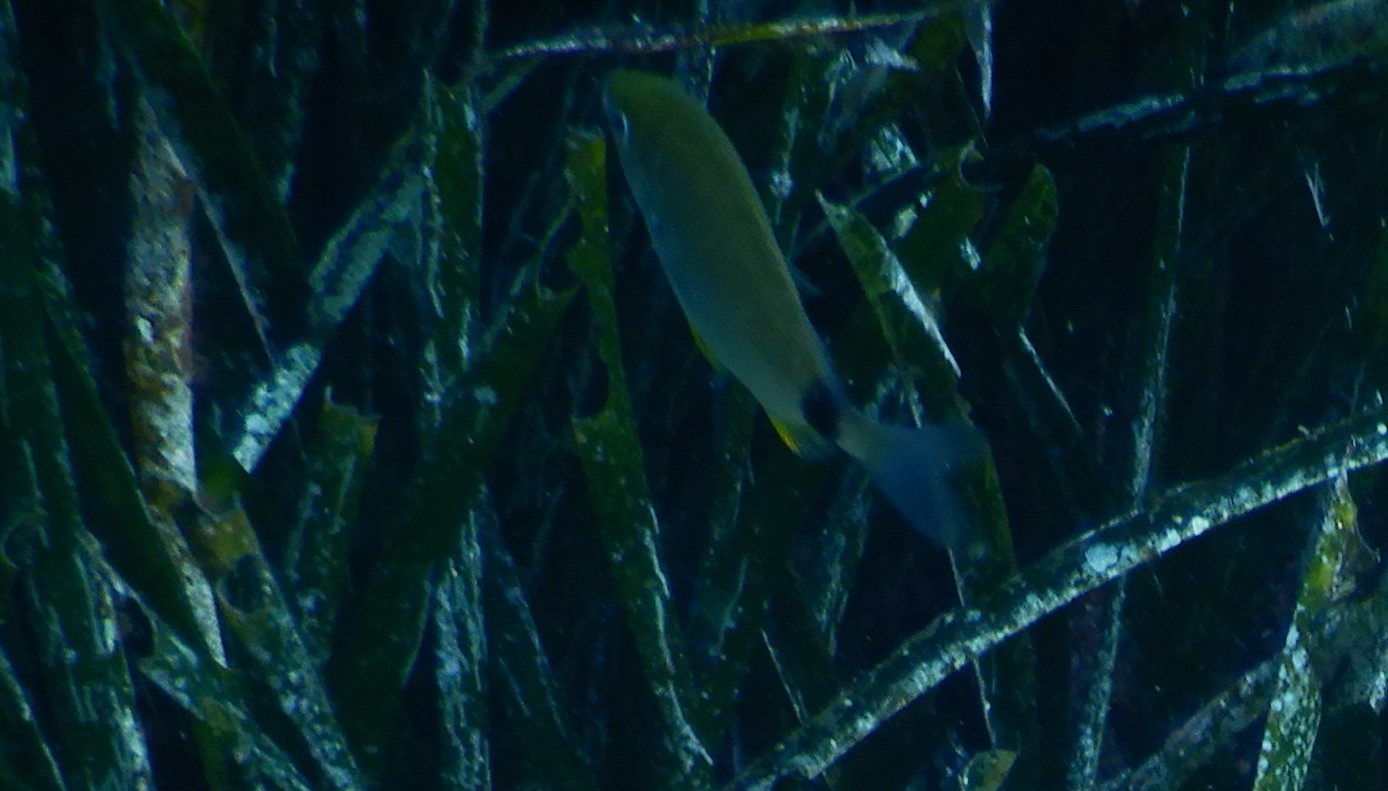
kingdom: Animalia
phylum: Chordata
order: Perciformes
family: Sparidae
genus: Diplodus
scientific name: Diplodus annularis
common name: Annular seabream
